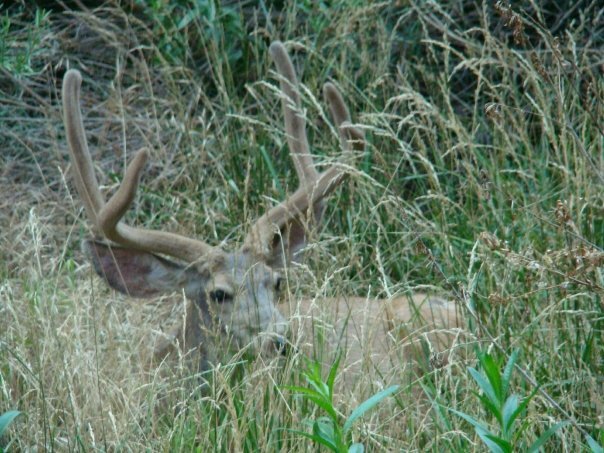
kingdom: Animalia
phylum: Chordata
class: Mammalia
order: Artiodactyla
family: Cervidae
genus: Odocoileus
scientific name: Odocoileus hemionus
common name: Mule deer
